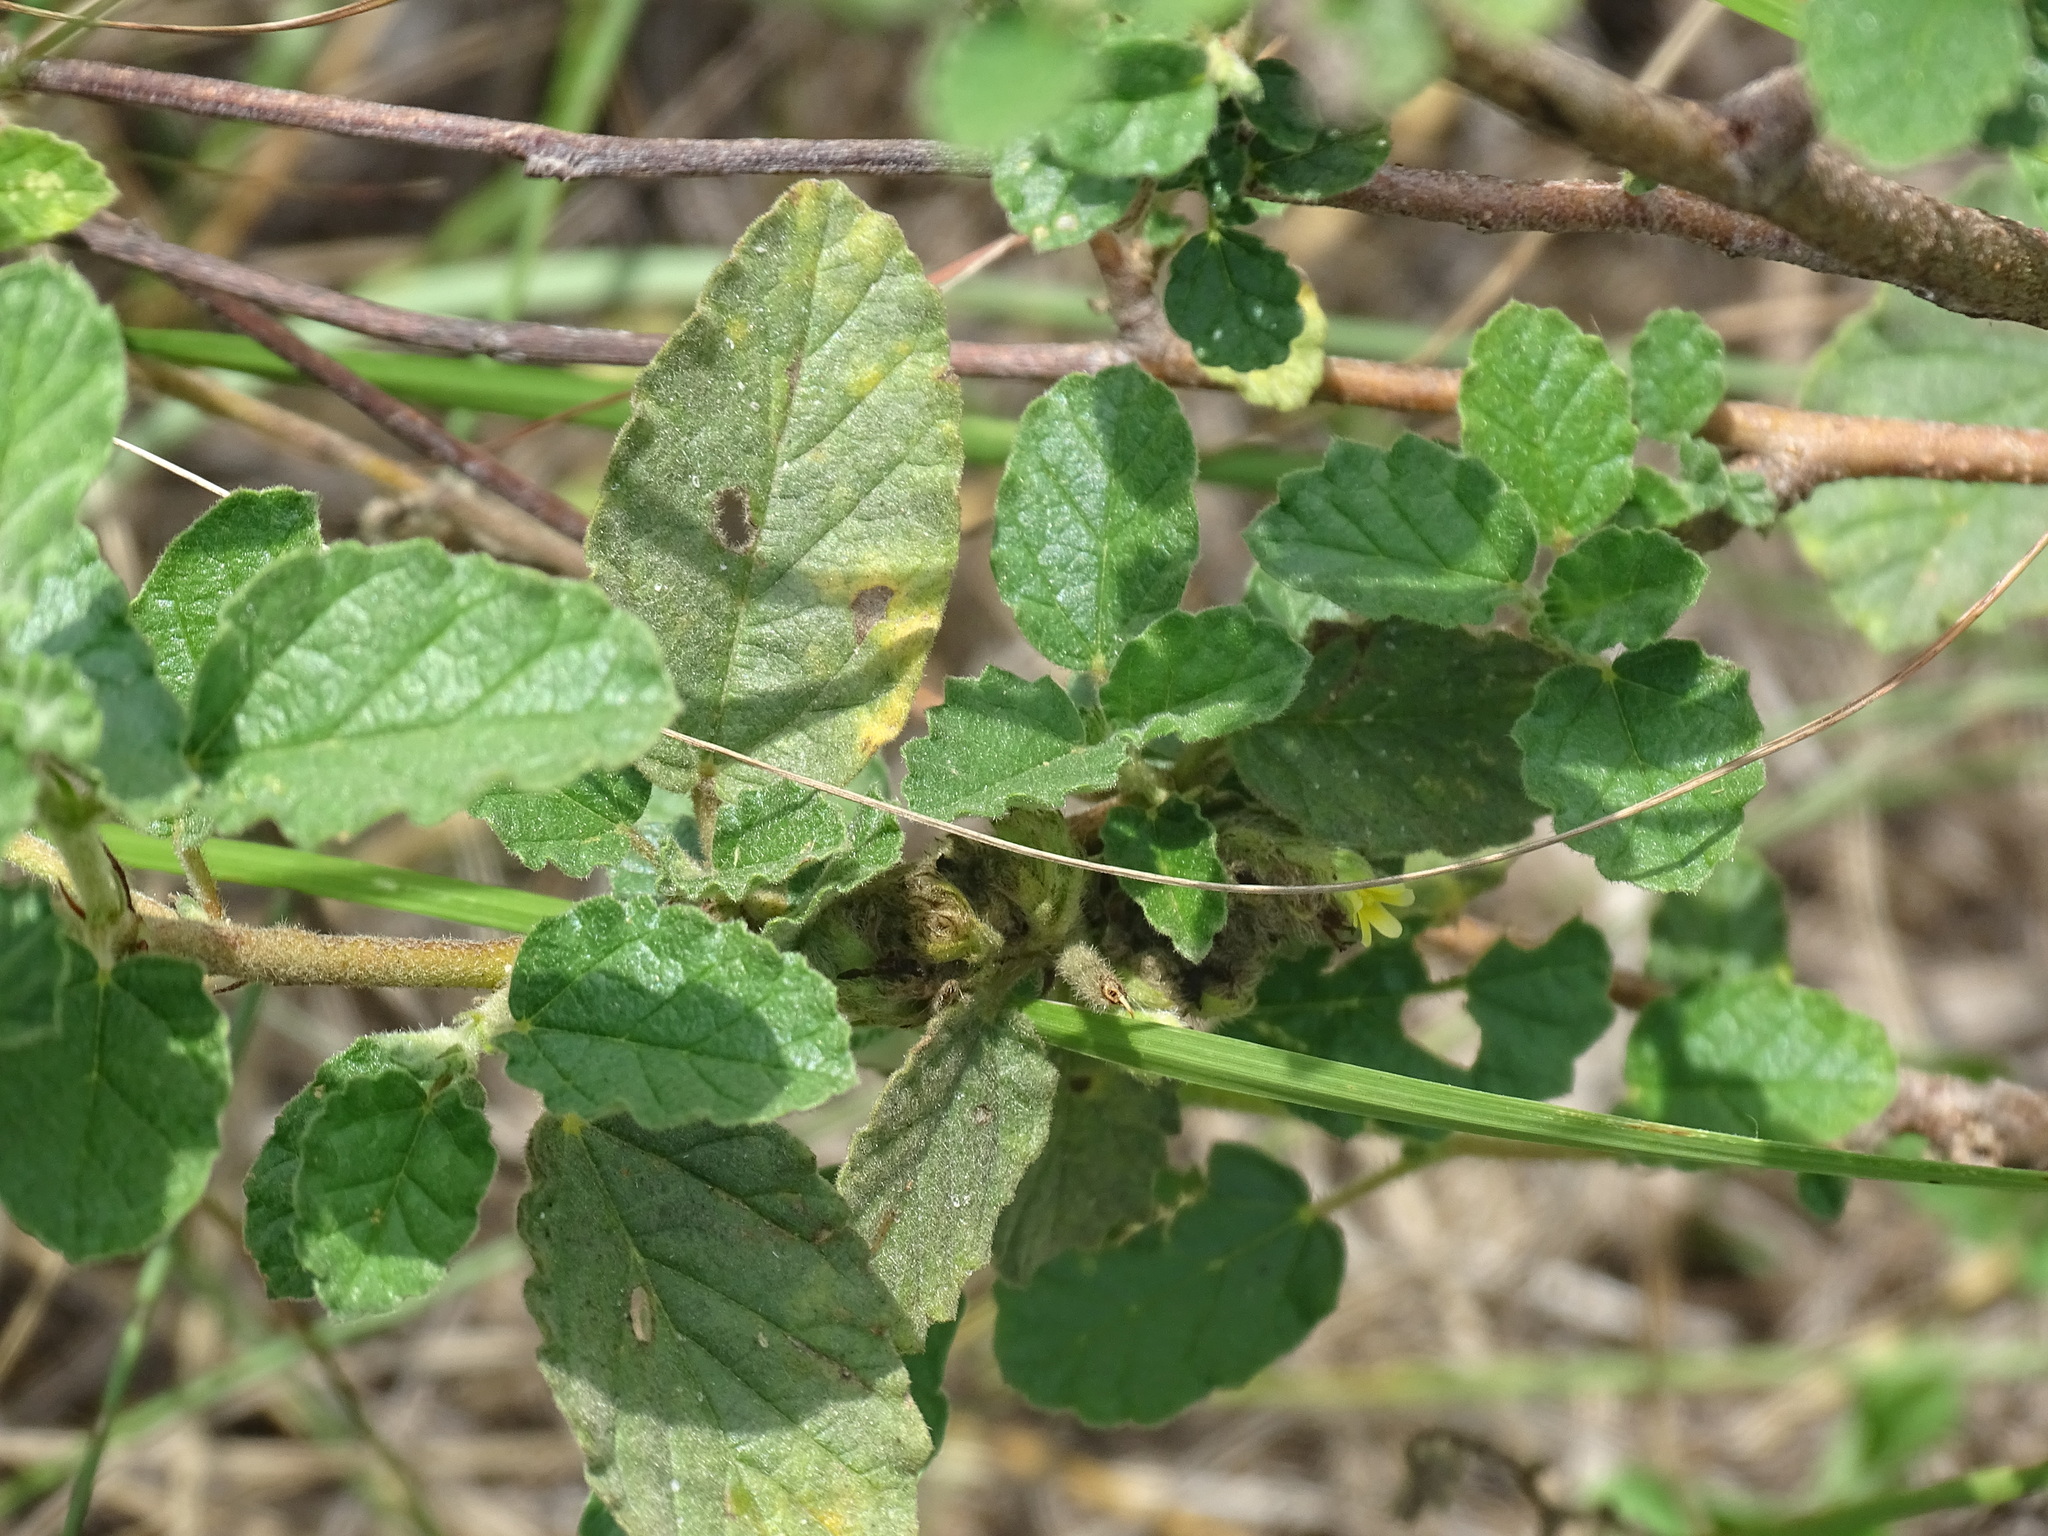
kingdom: Plantae
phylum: Tracheophyta
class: Magnoliopsida
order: Malvales
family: Malvaceae
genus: Waltheria
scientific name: Waltheria indica
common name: Leather-coat
